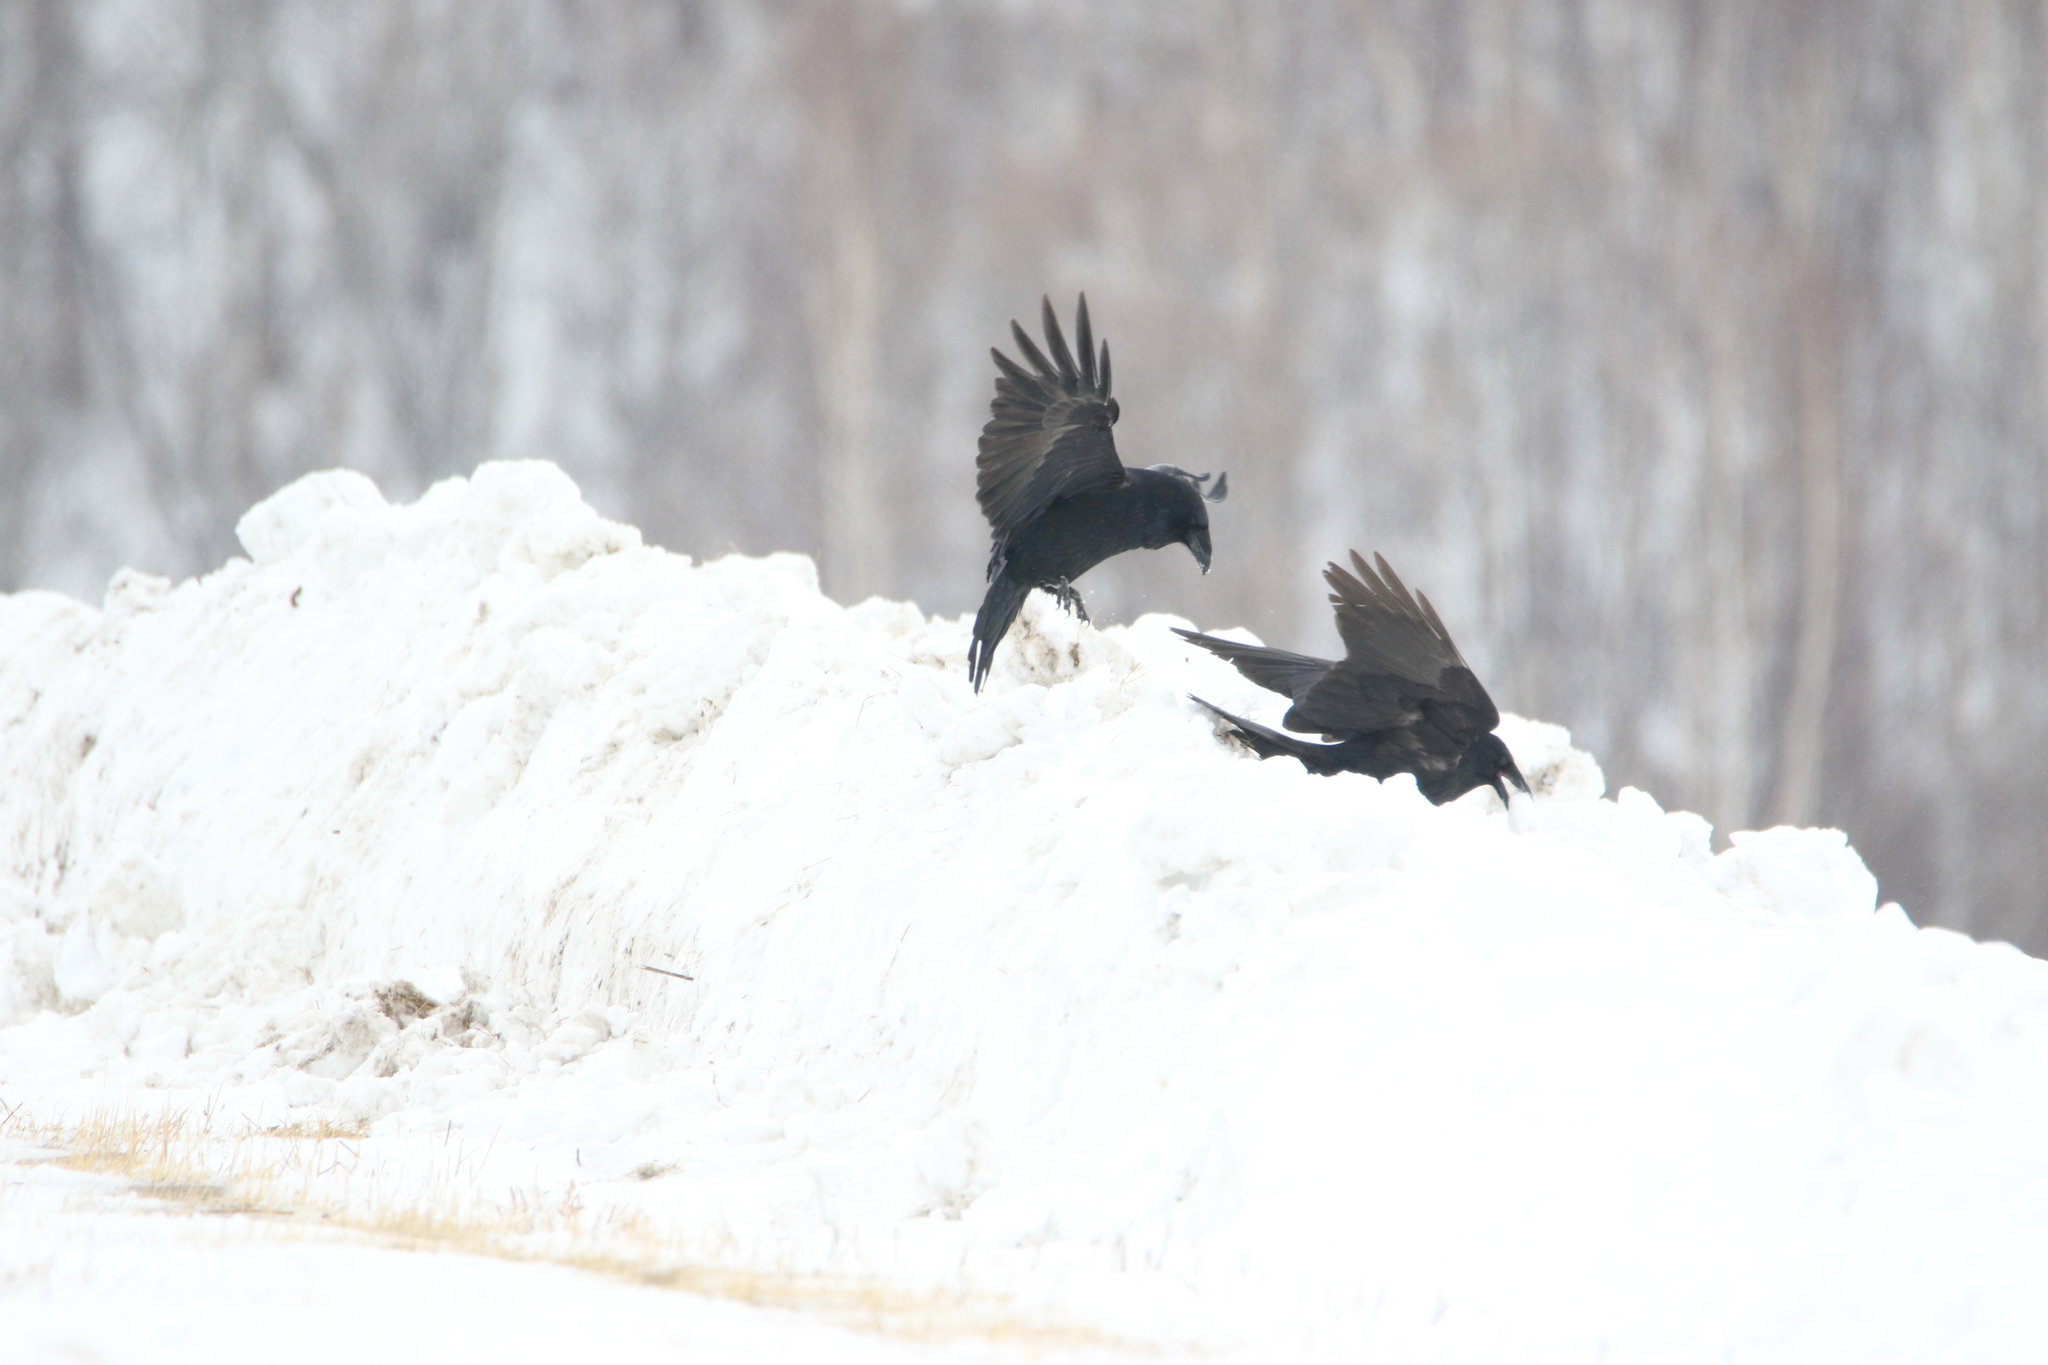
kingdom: Animalia
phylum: Chordata
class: Aves
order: Passeriformes
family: Corvidae
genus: Corvus
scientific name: Corvus corax
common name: Common raven
